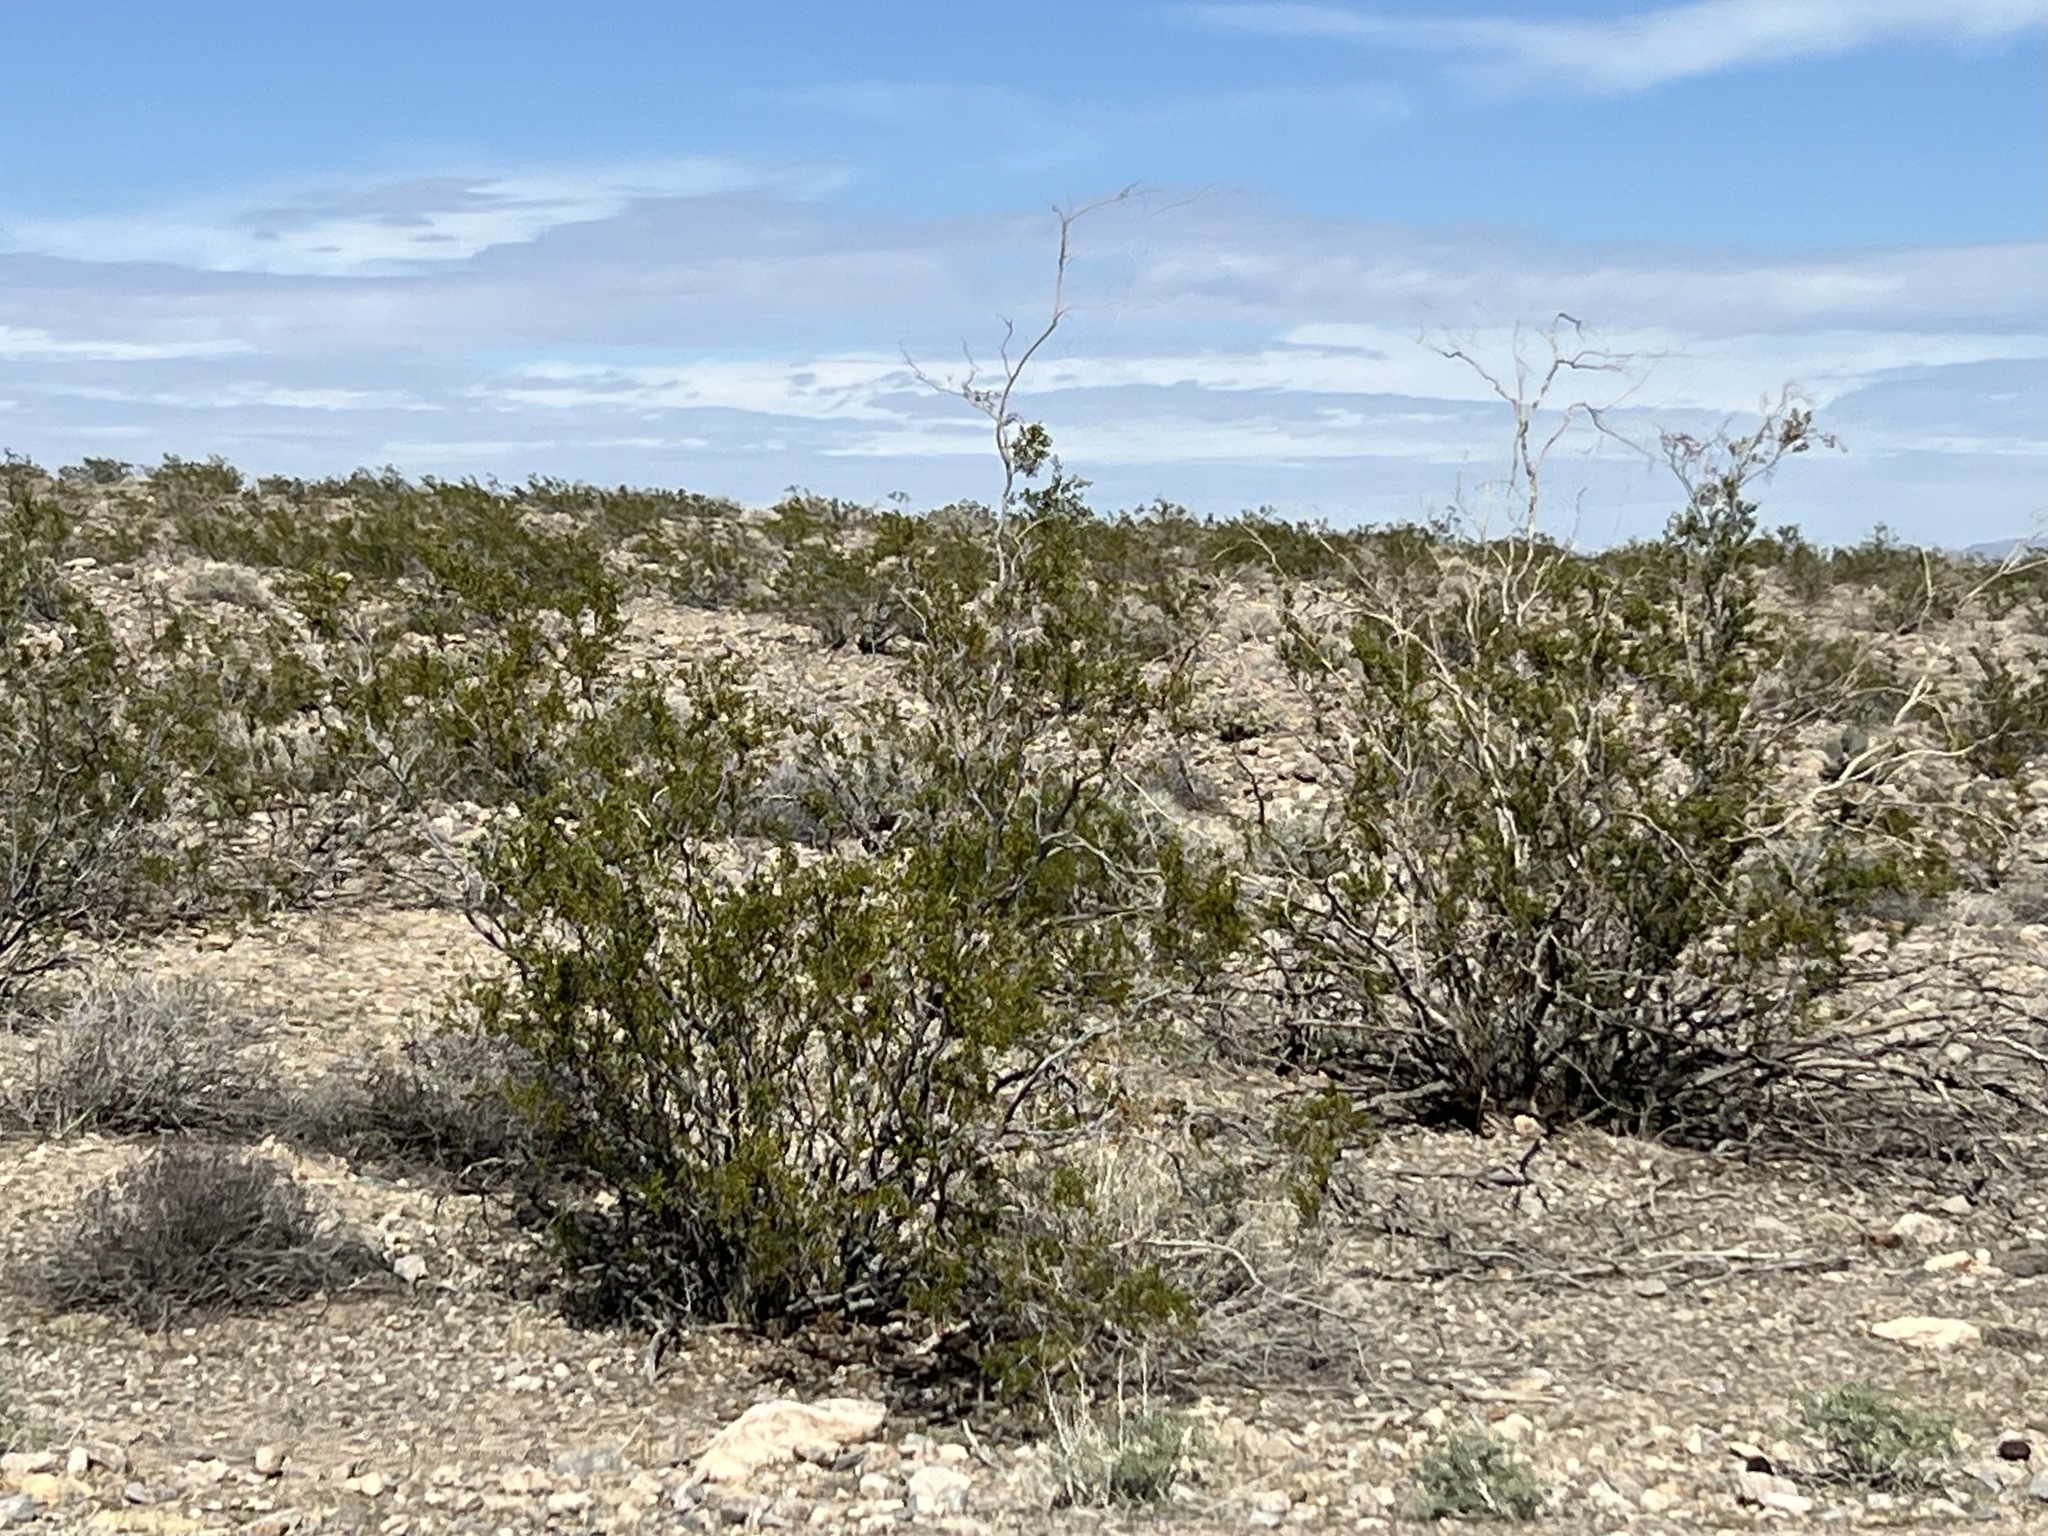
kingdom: Plantae
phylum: Tracheophyta
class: Magnoliopsida
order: Zygophyllales
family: Zygophyllaceae
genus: Larrea
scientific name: Larrea tridentata
